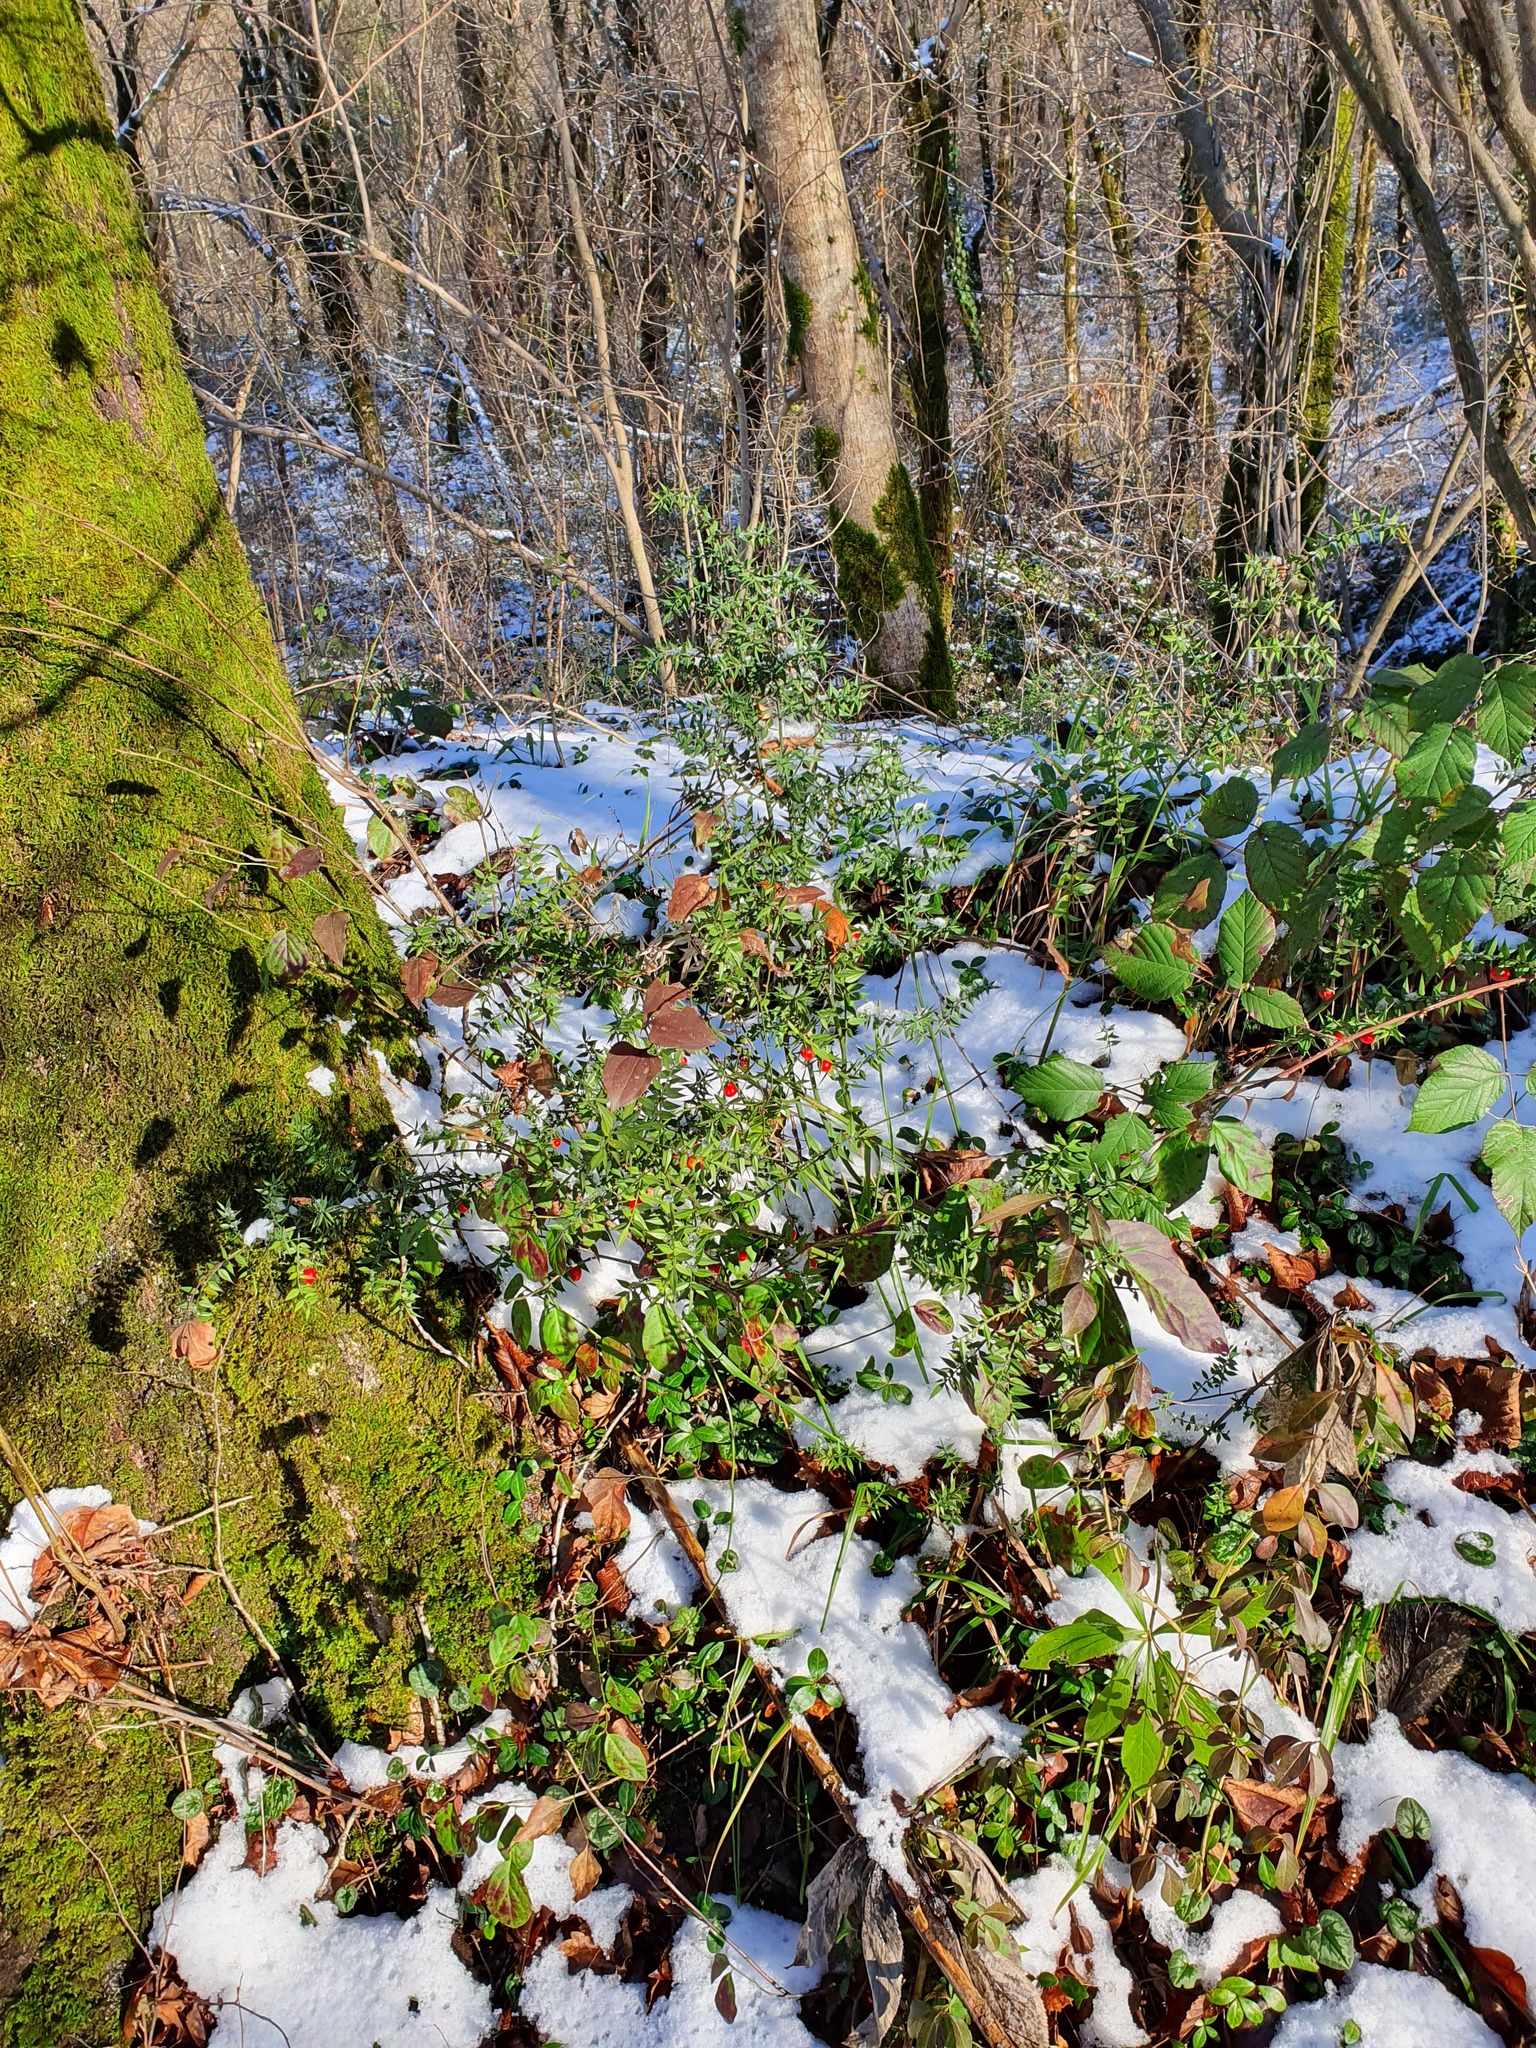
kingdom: Plantae
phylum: Tracheophyta
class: Liliopsida
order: Asparagales
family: Asparagaceae
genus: Ruscus
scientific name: Ruscus aculeatus
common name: Butcher's-broom
